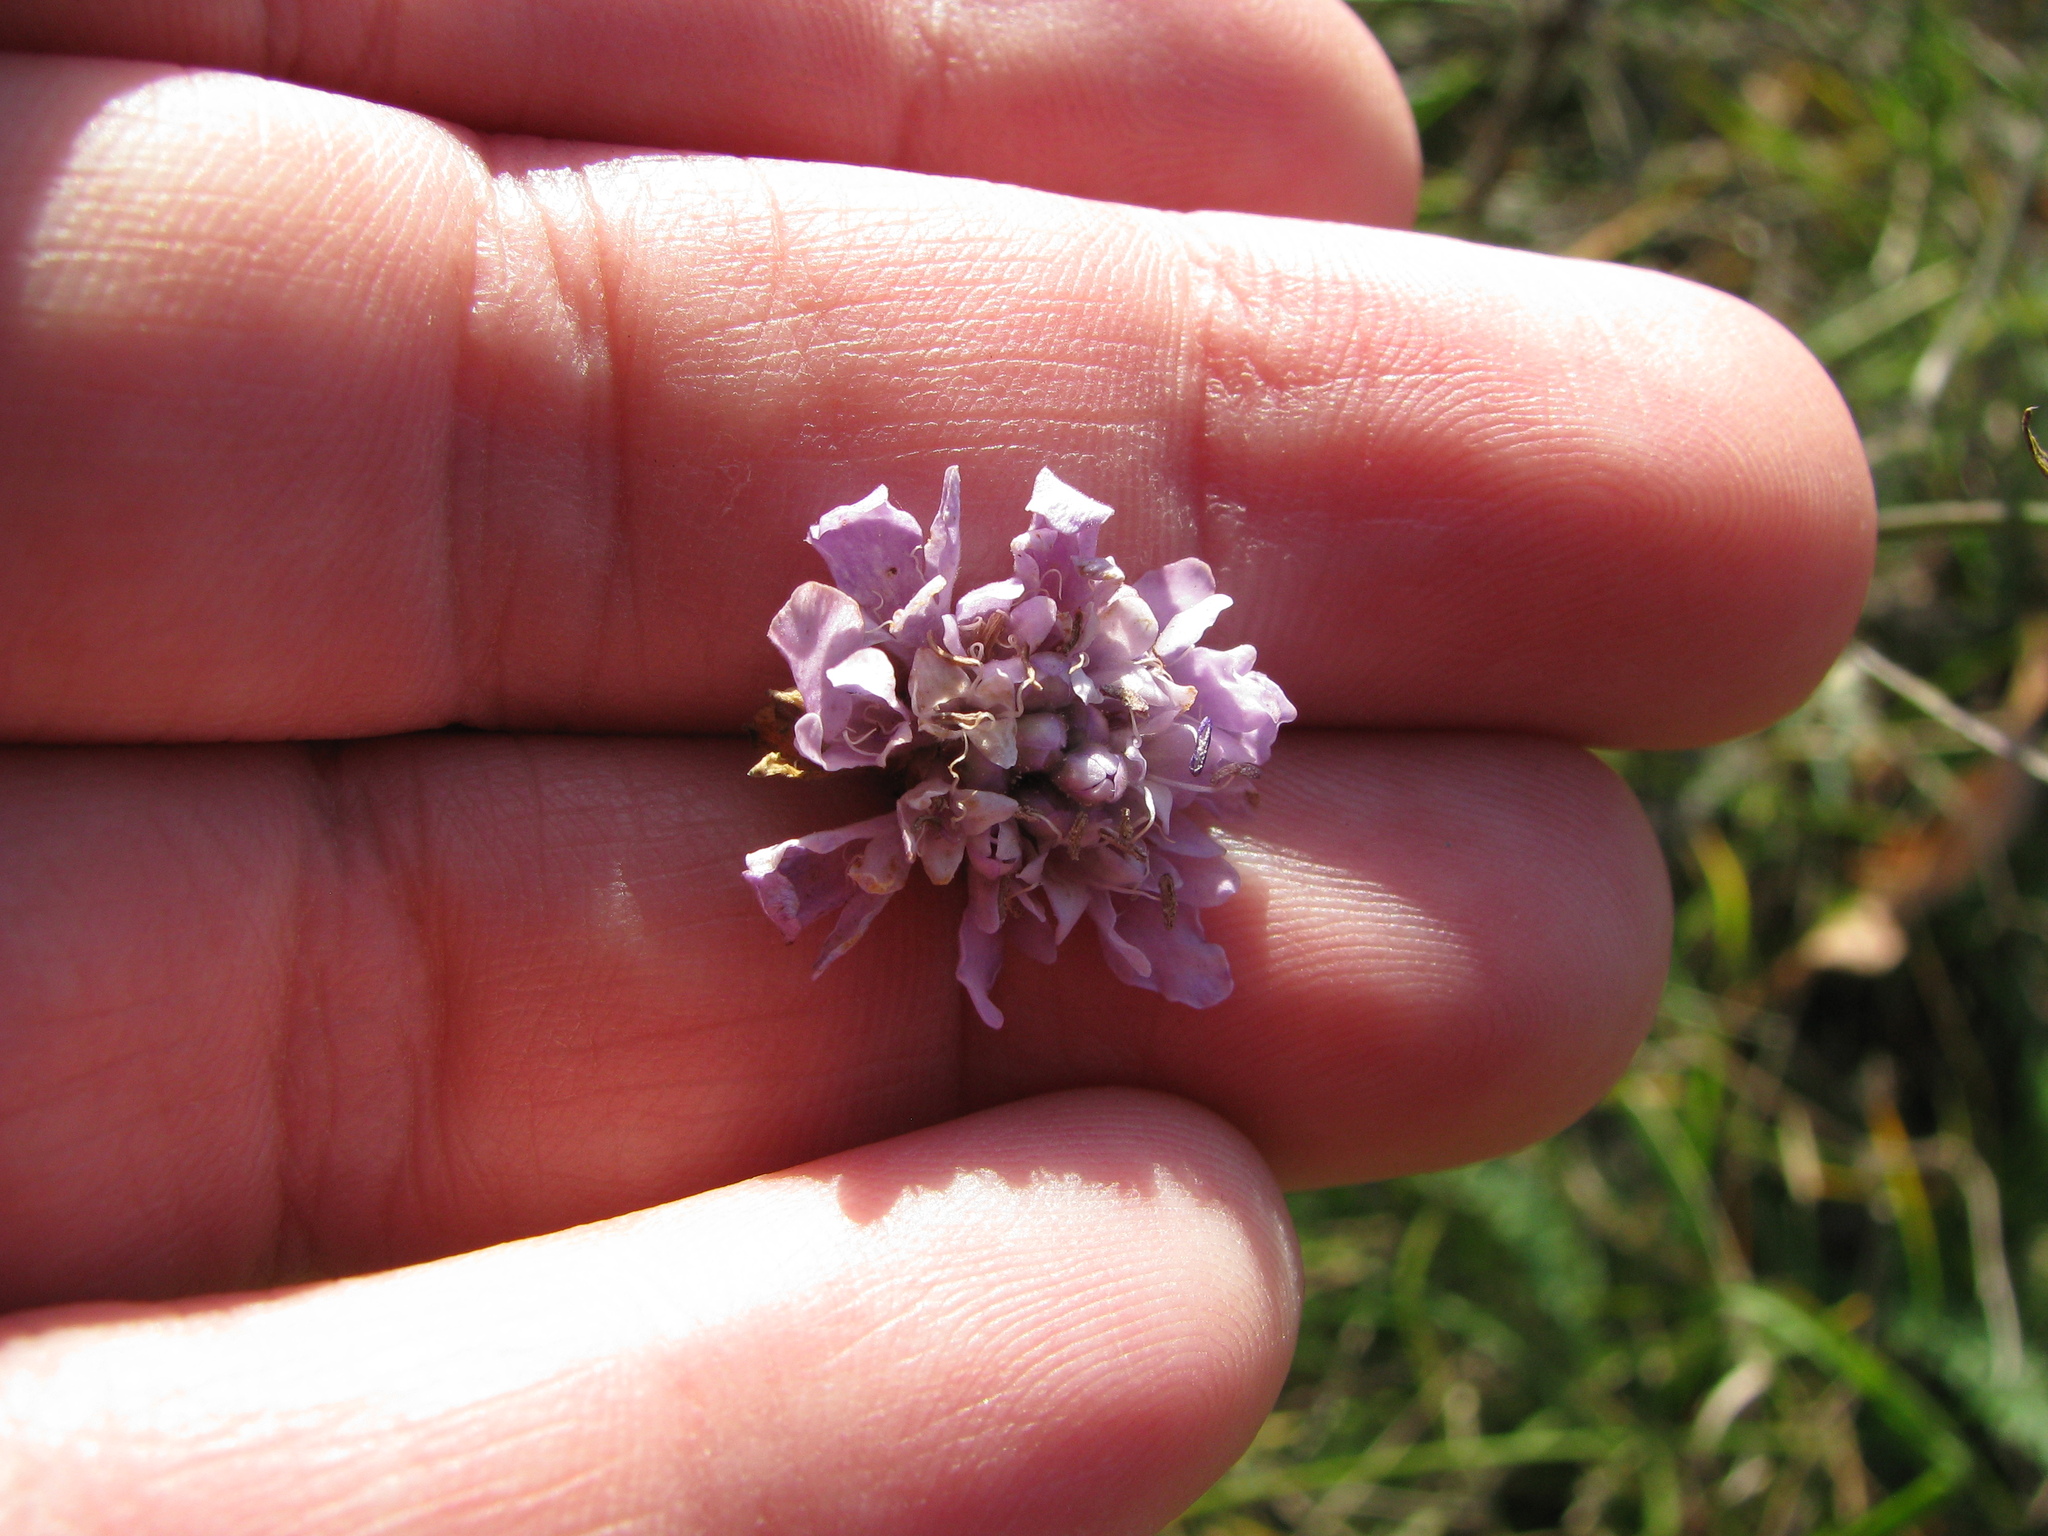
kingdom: Plantae
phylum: Tracheophyta
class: Magnoliopsida
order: Dipsacales
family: Caprifoliaceae
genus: Cephalaria
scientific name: Cephalaria transsylvanica
